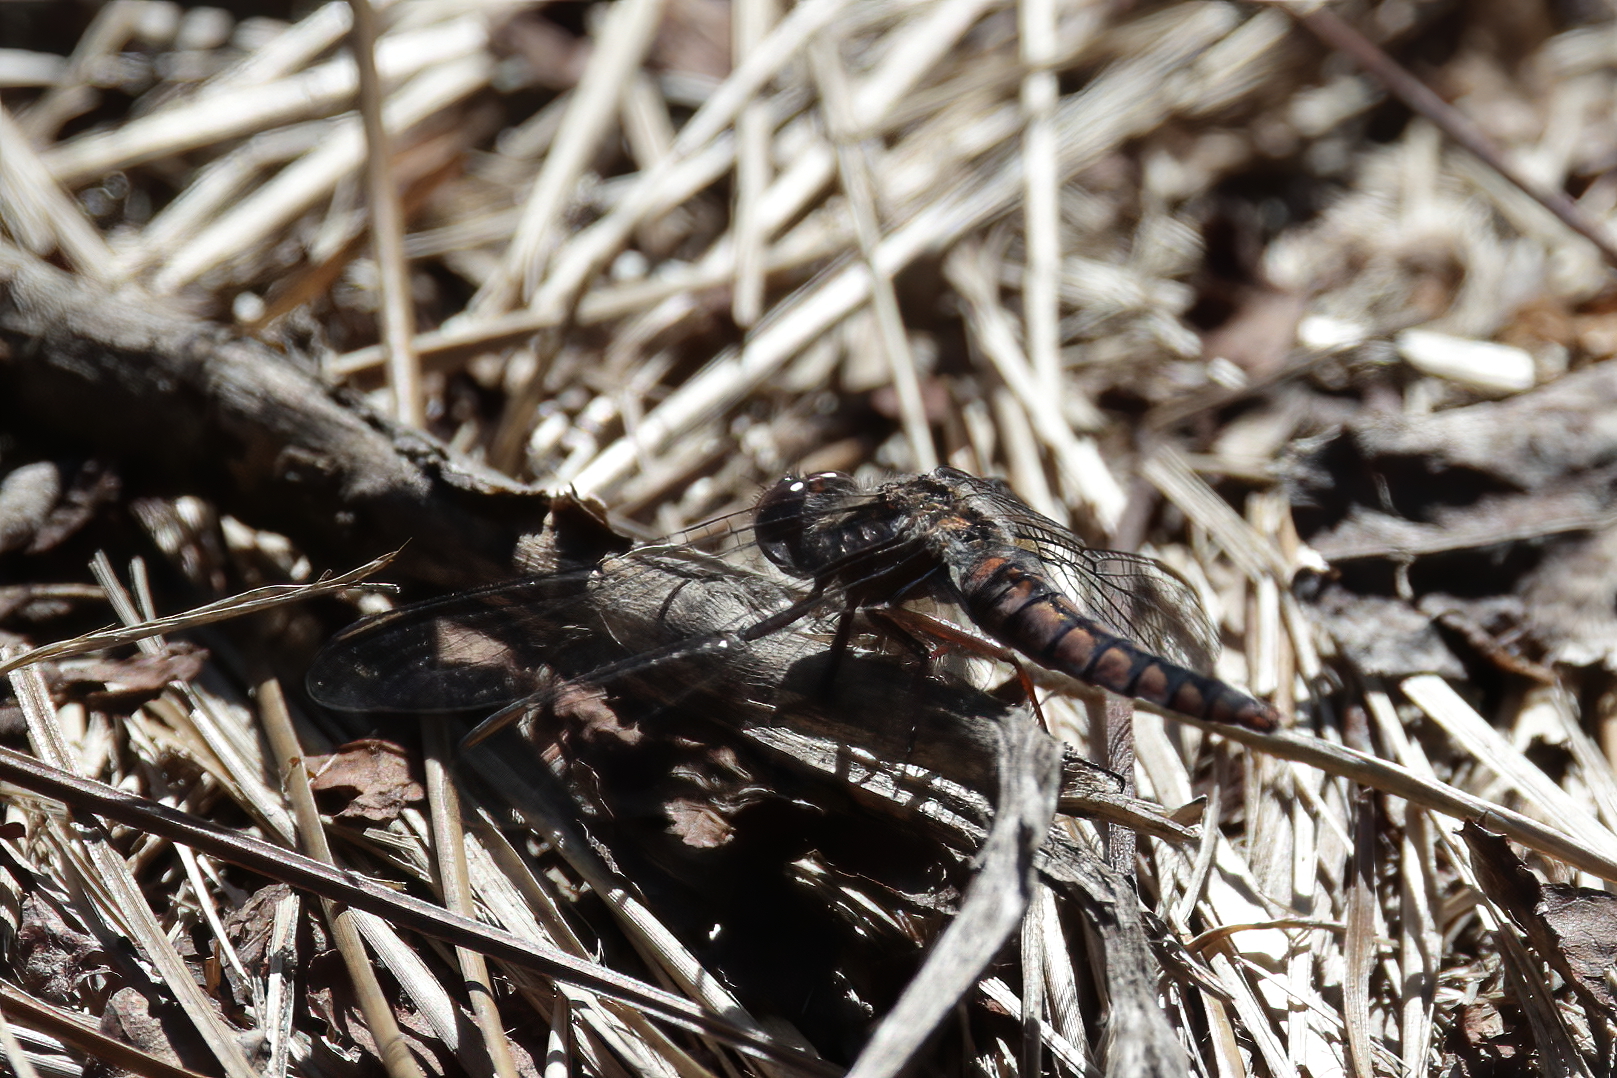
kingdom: Animalia
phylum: Arthropoda
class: Insecta
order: Odonata
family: Libellulidae
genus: Ladona
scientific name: Ladona deplanata
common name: Blue corporal
